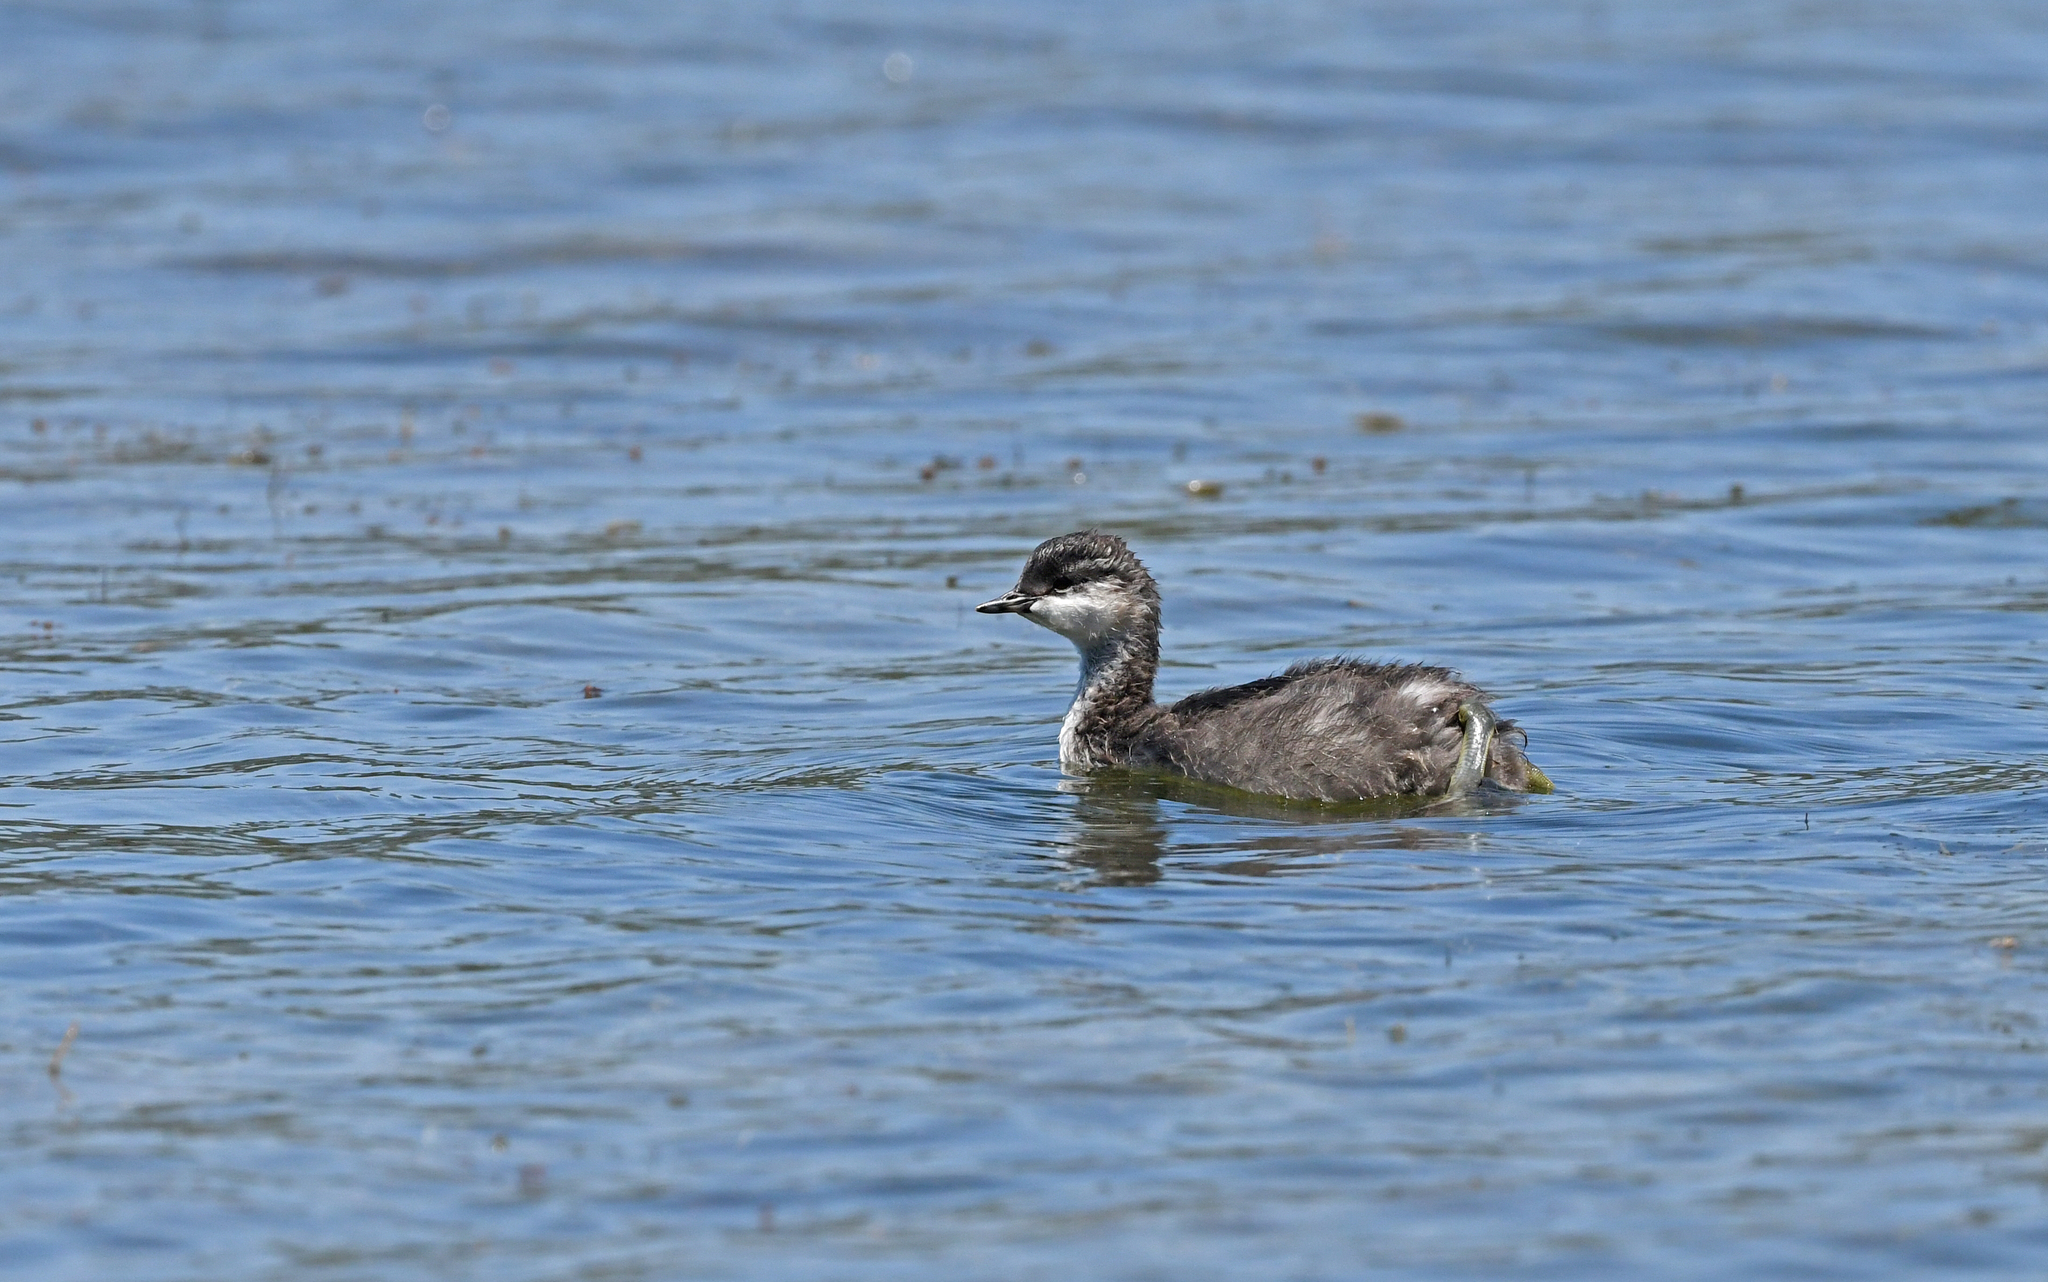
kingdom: Animalia
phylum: Chordata
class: Aves
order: Podicipediformes
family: Podicipedidae
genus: Podiceps
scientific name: Podiceps nigricollis
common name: Black-necked grebe
